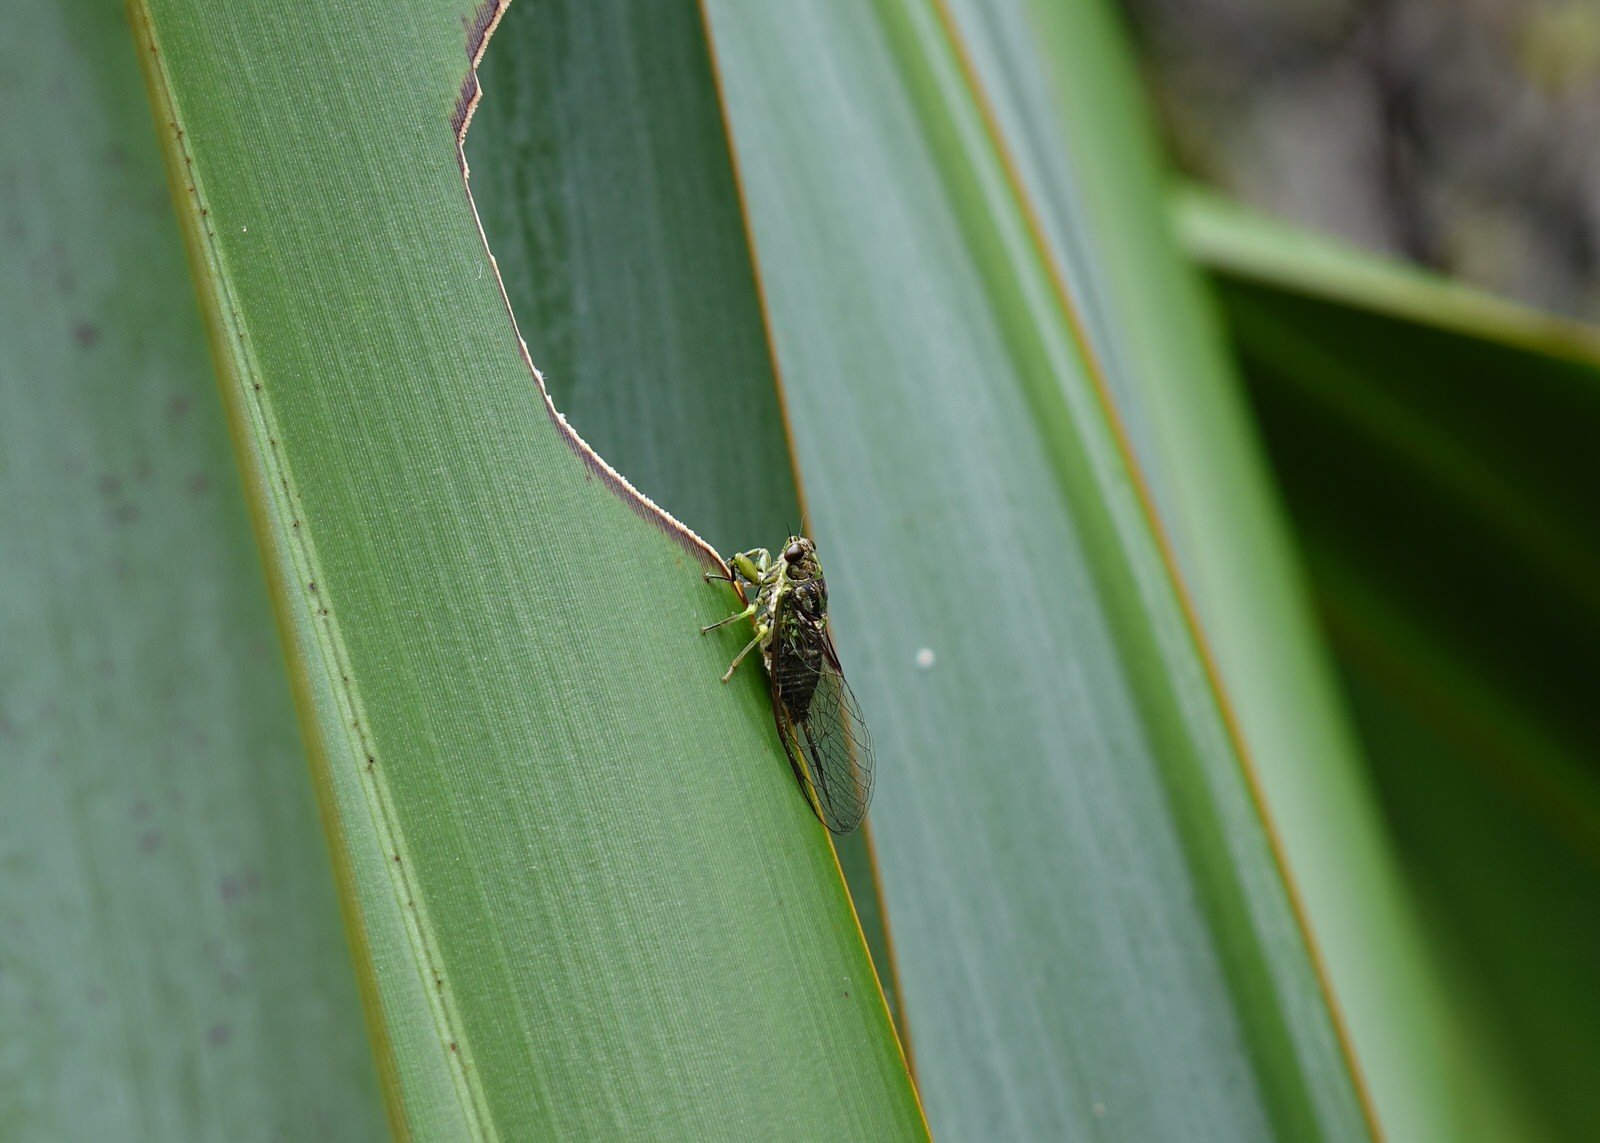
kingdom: Animalia
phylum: Arthropoda
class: Insecta
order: Hemiptera
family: Cicadidae
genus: Kikihia
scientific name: Kikihia scutellaris
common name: Lesser bronze cicada
